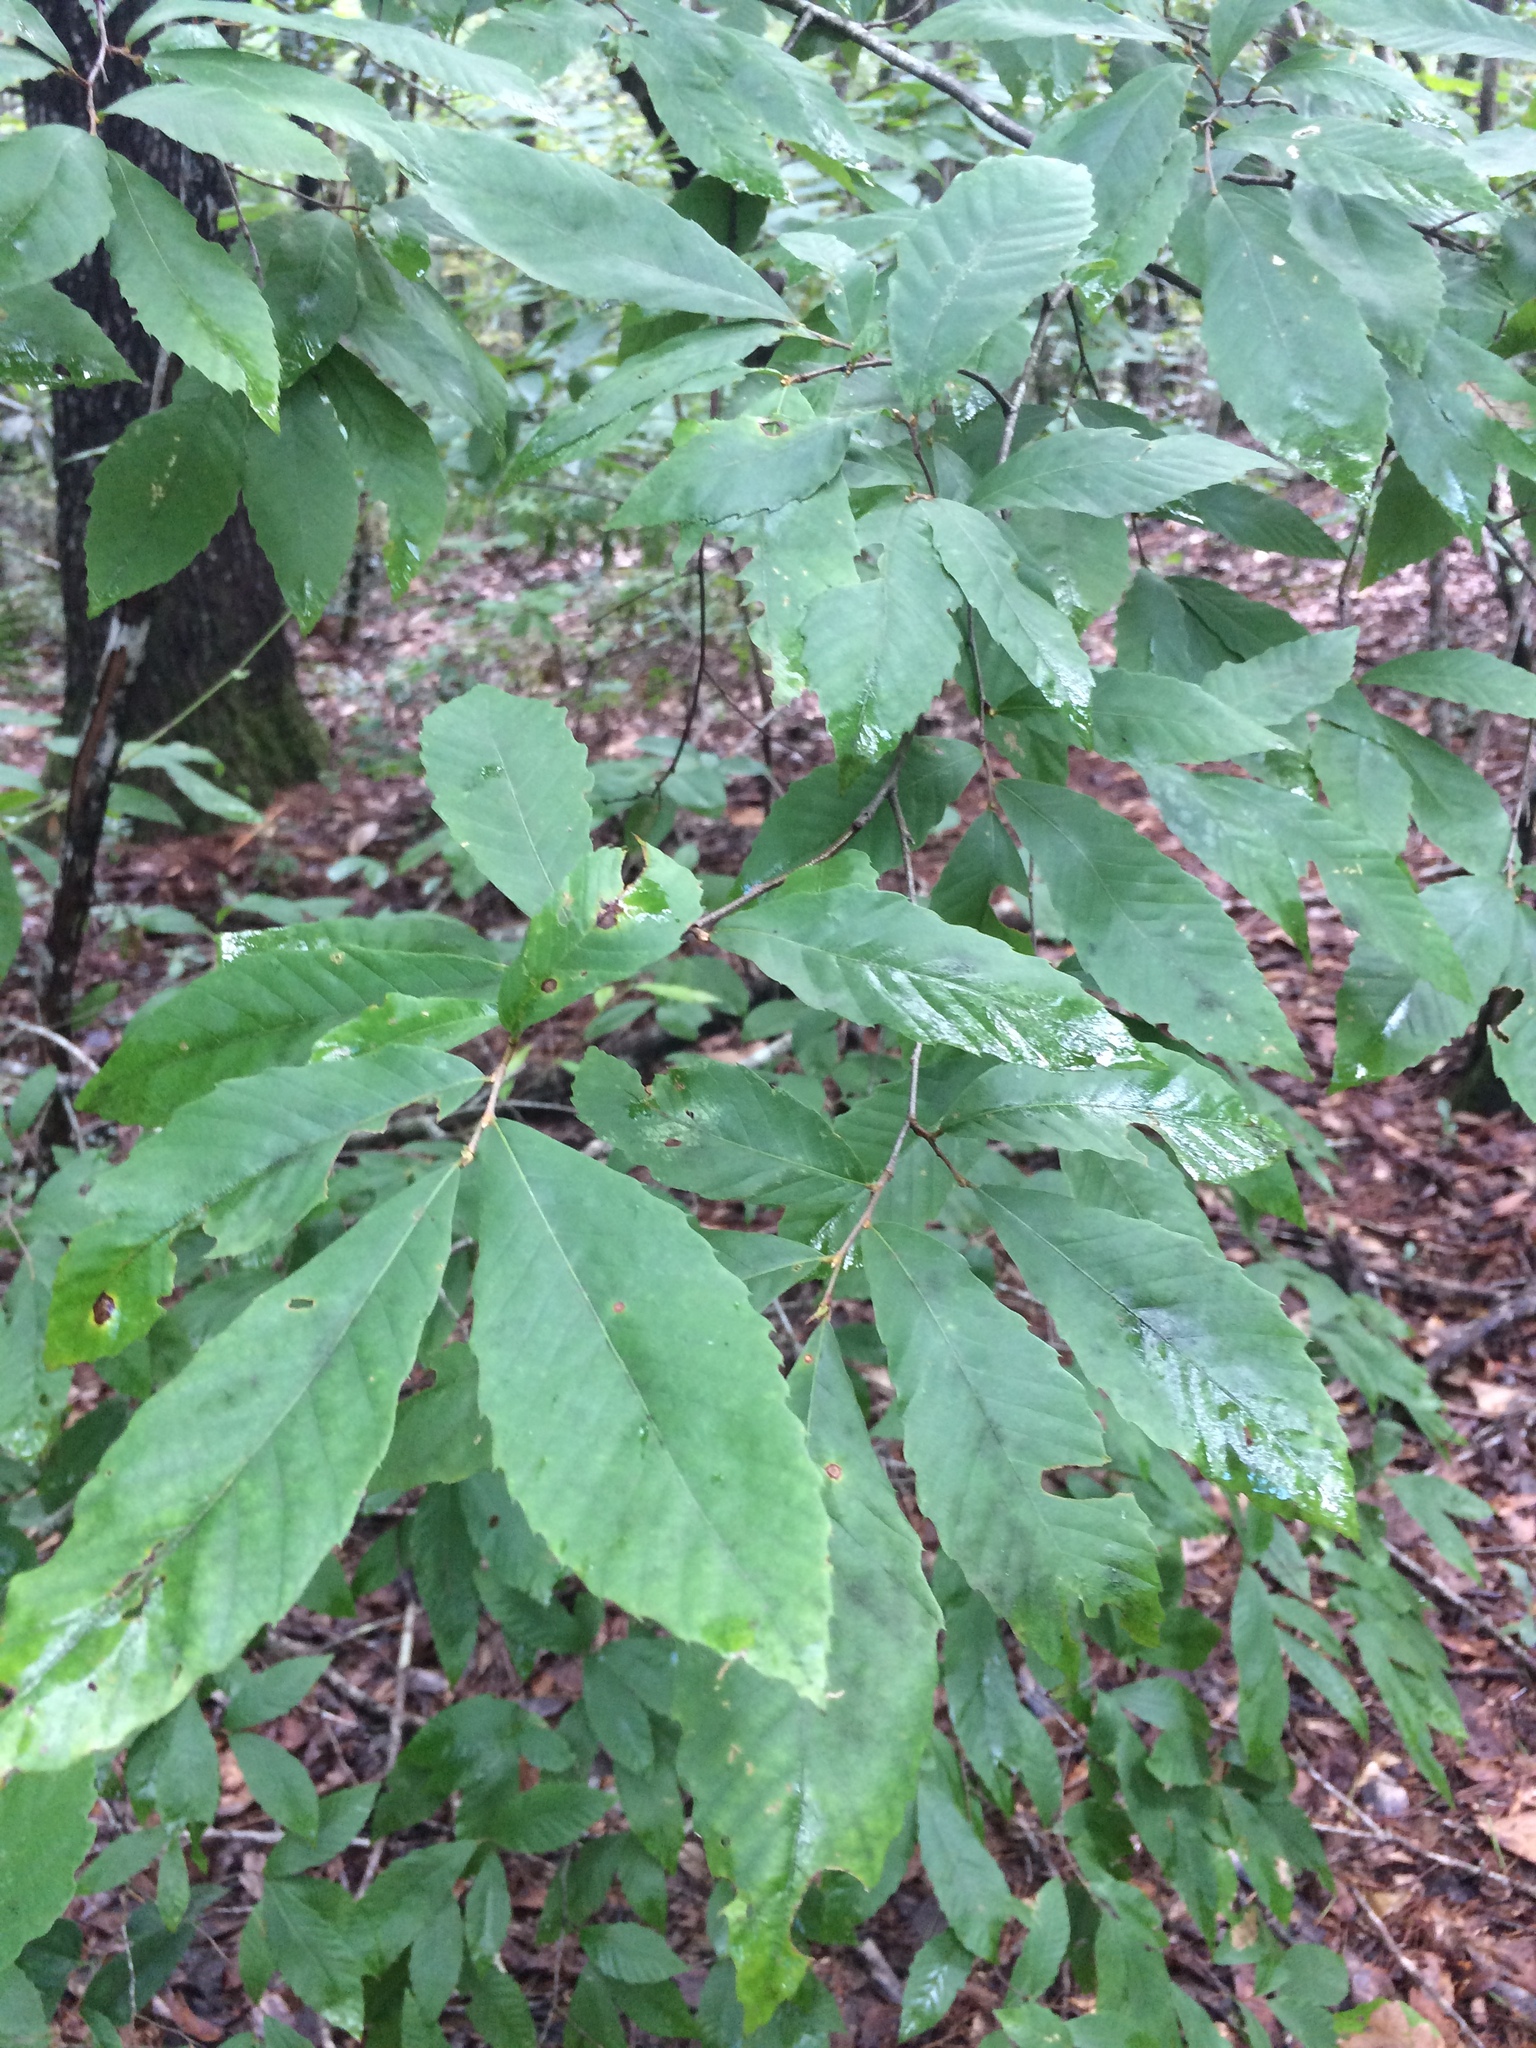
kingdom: Plantae
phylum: Tracheophyta
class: Magnoliopsida
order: Fagales
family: Fagaceae
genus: Castanea
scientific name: Castanea pumila
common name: Chinkapin
